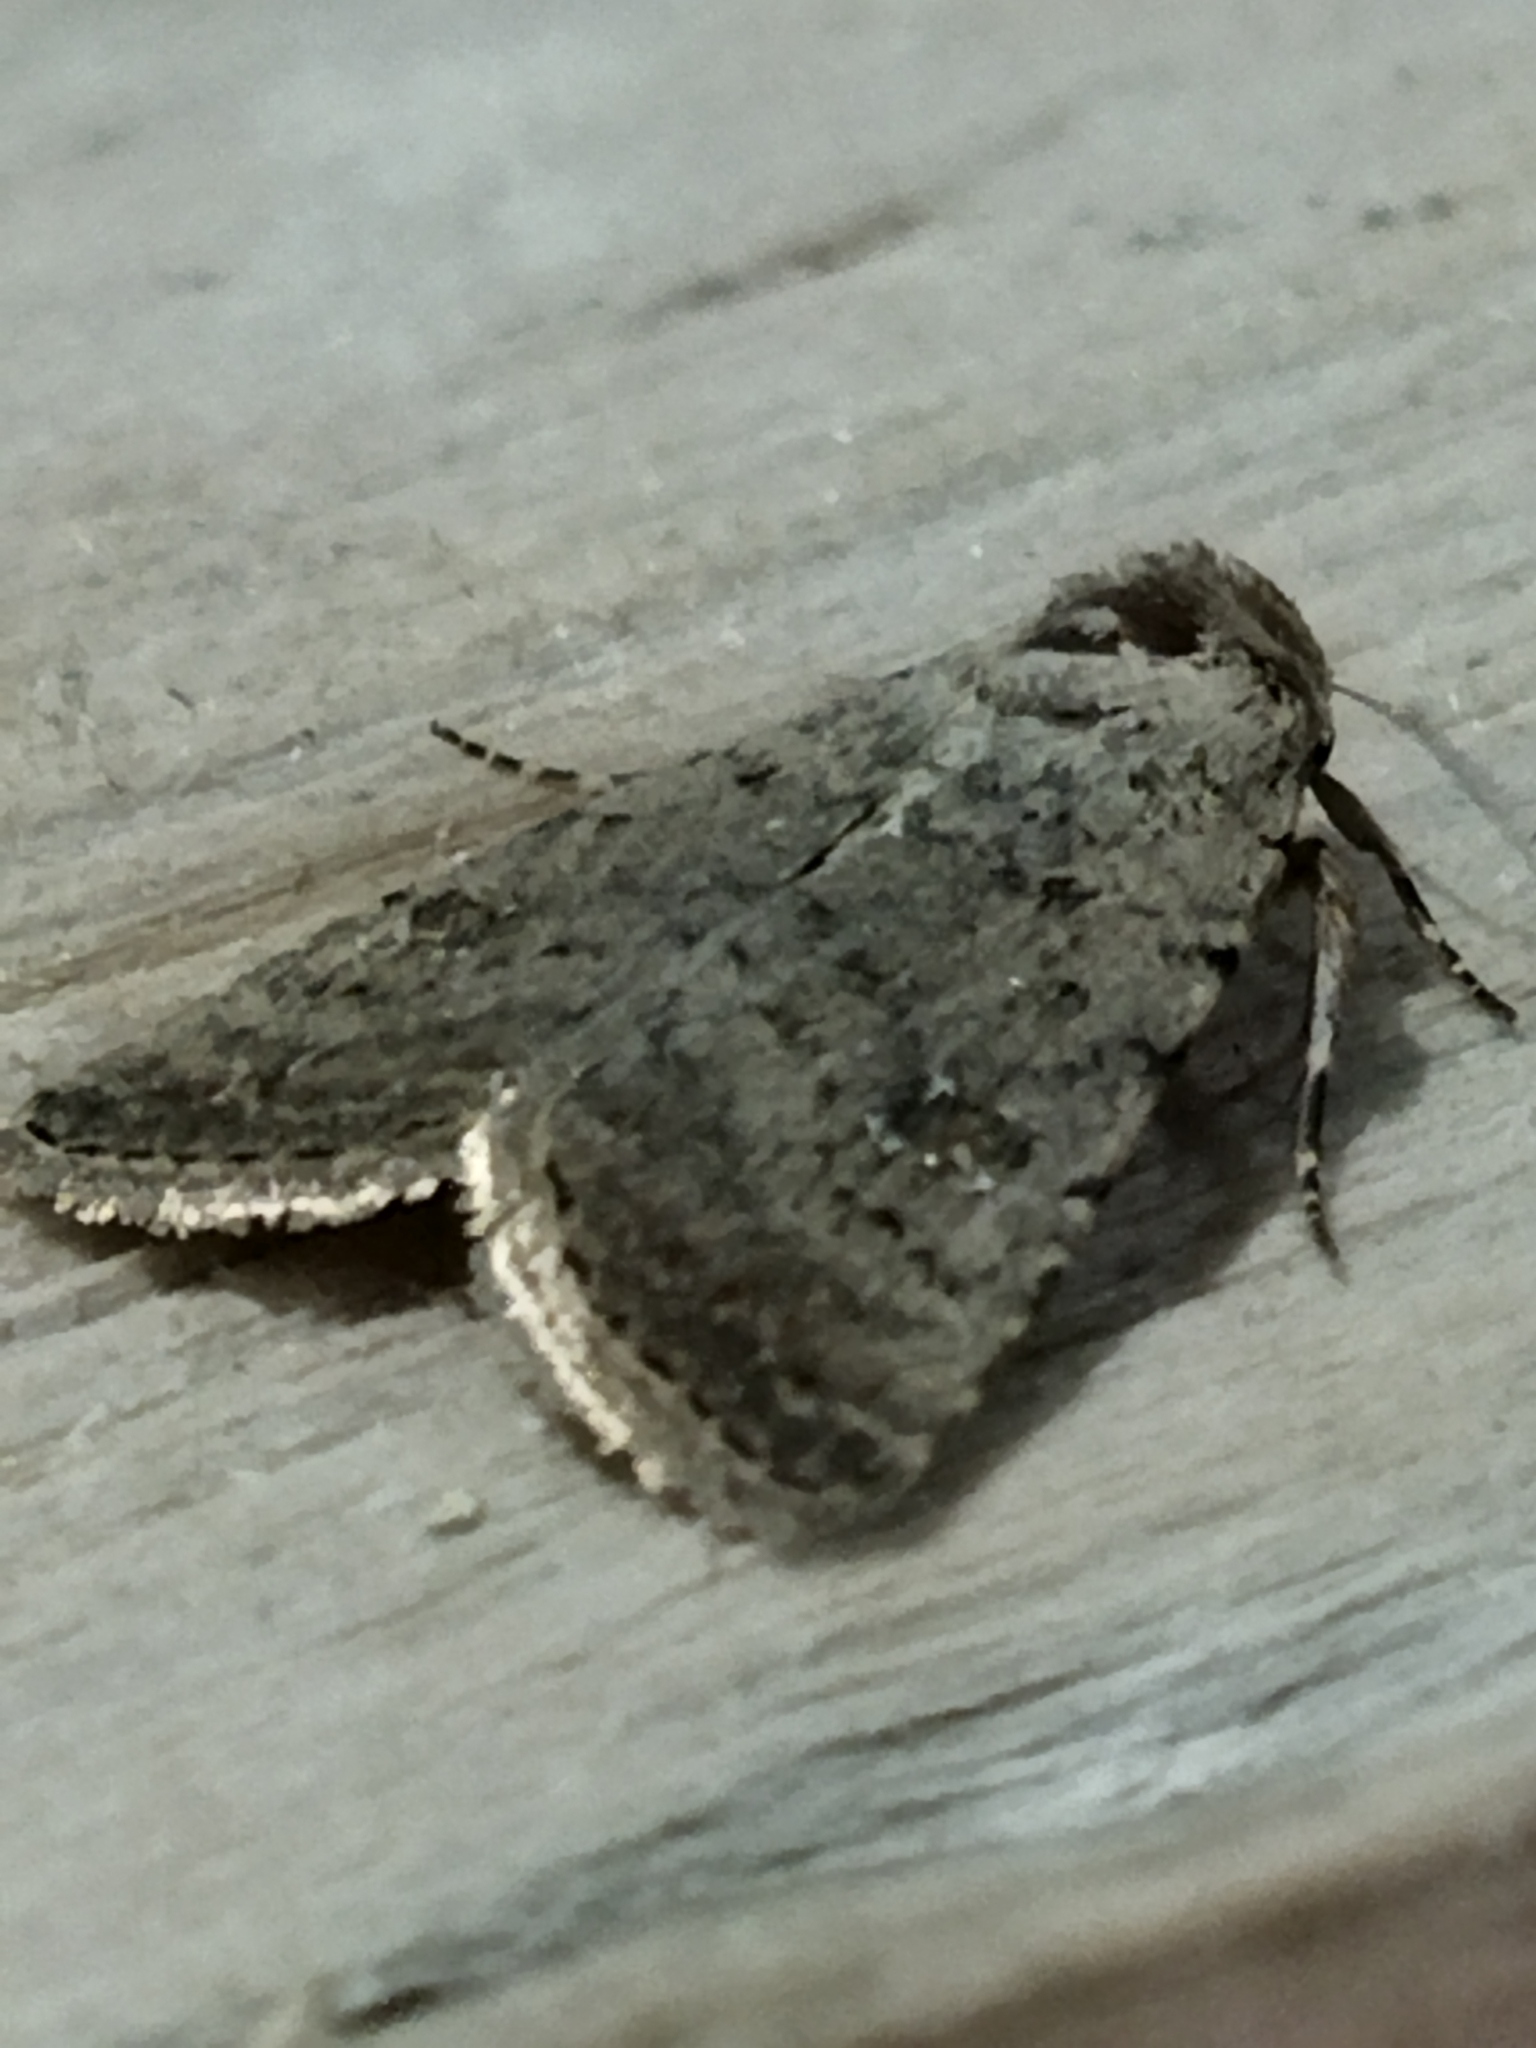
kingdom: Animalia
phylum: Arthropoda
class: Insecta
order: Lepidoptera
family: Noctuidae
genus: Caradrina
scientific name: Caradrina clavipalpis
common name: Pale mottled willow
